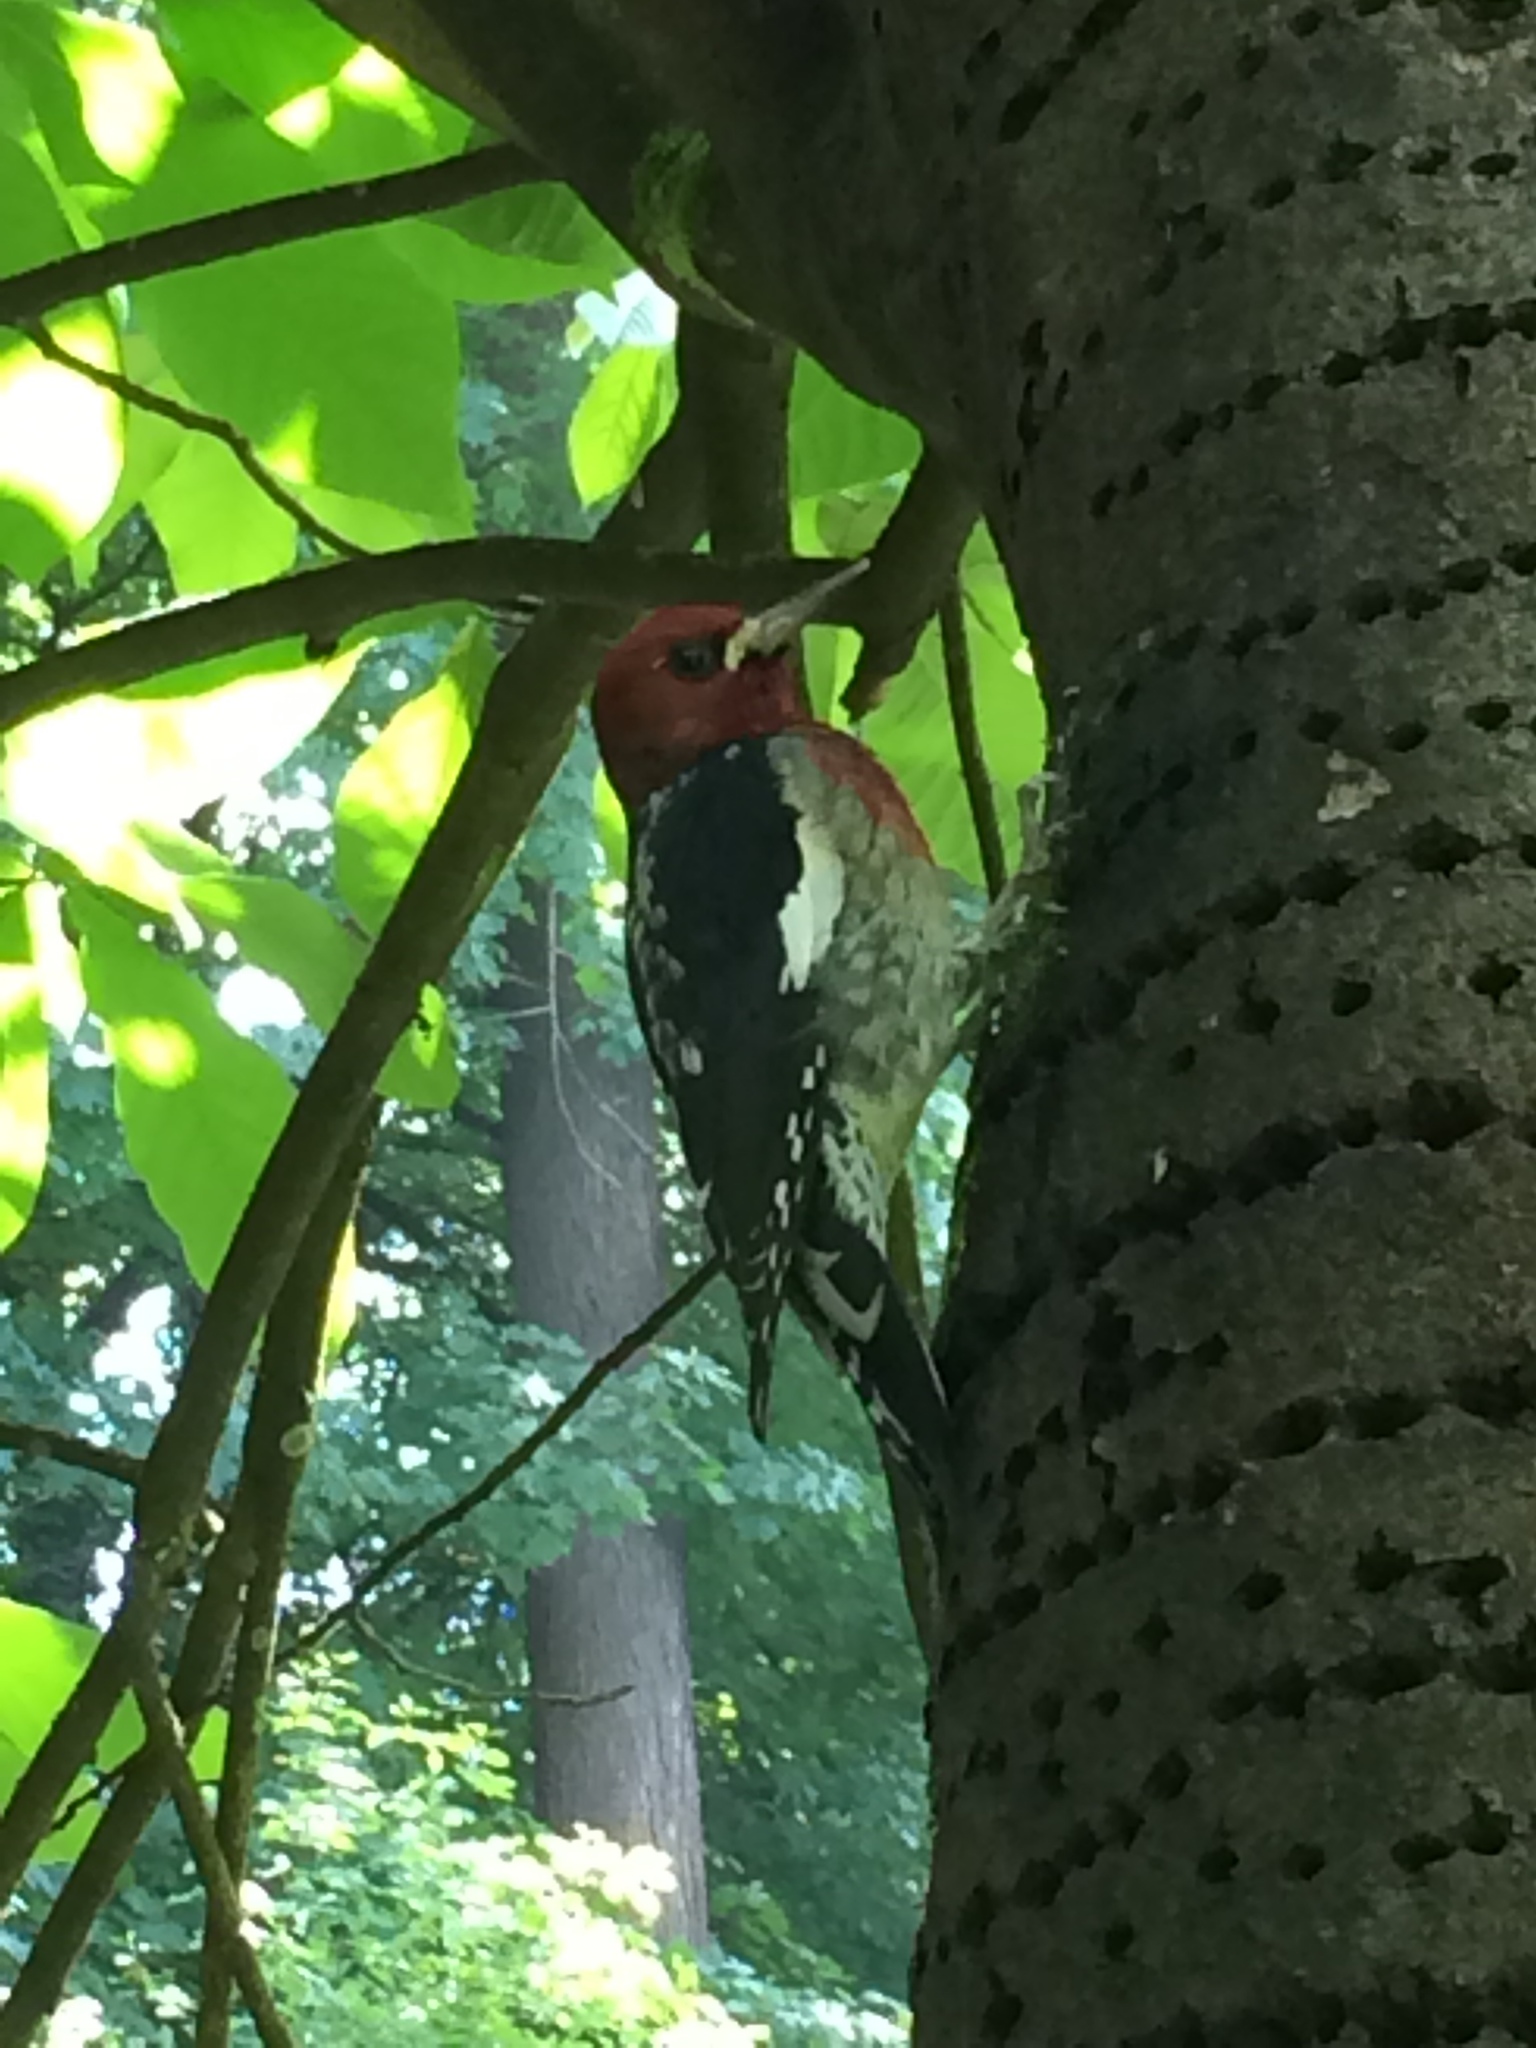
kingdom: Animalia
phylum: Chordata
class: Aves
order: Piciformes
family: Picidae
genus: Sphyrapicus
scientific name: Sphyrapicus ruber
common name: Red-breasted sapsucker
